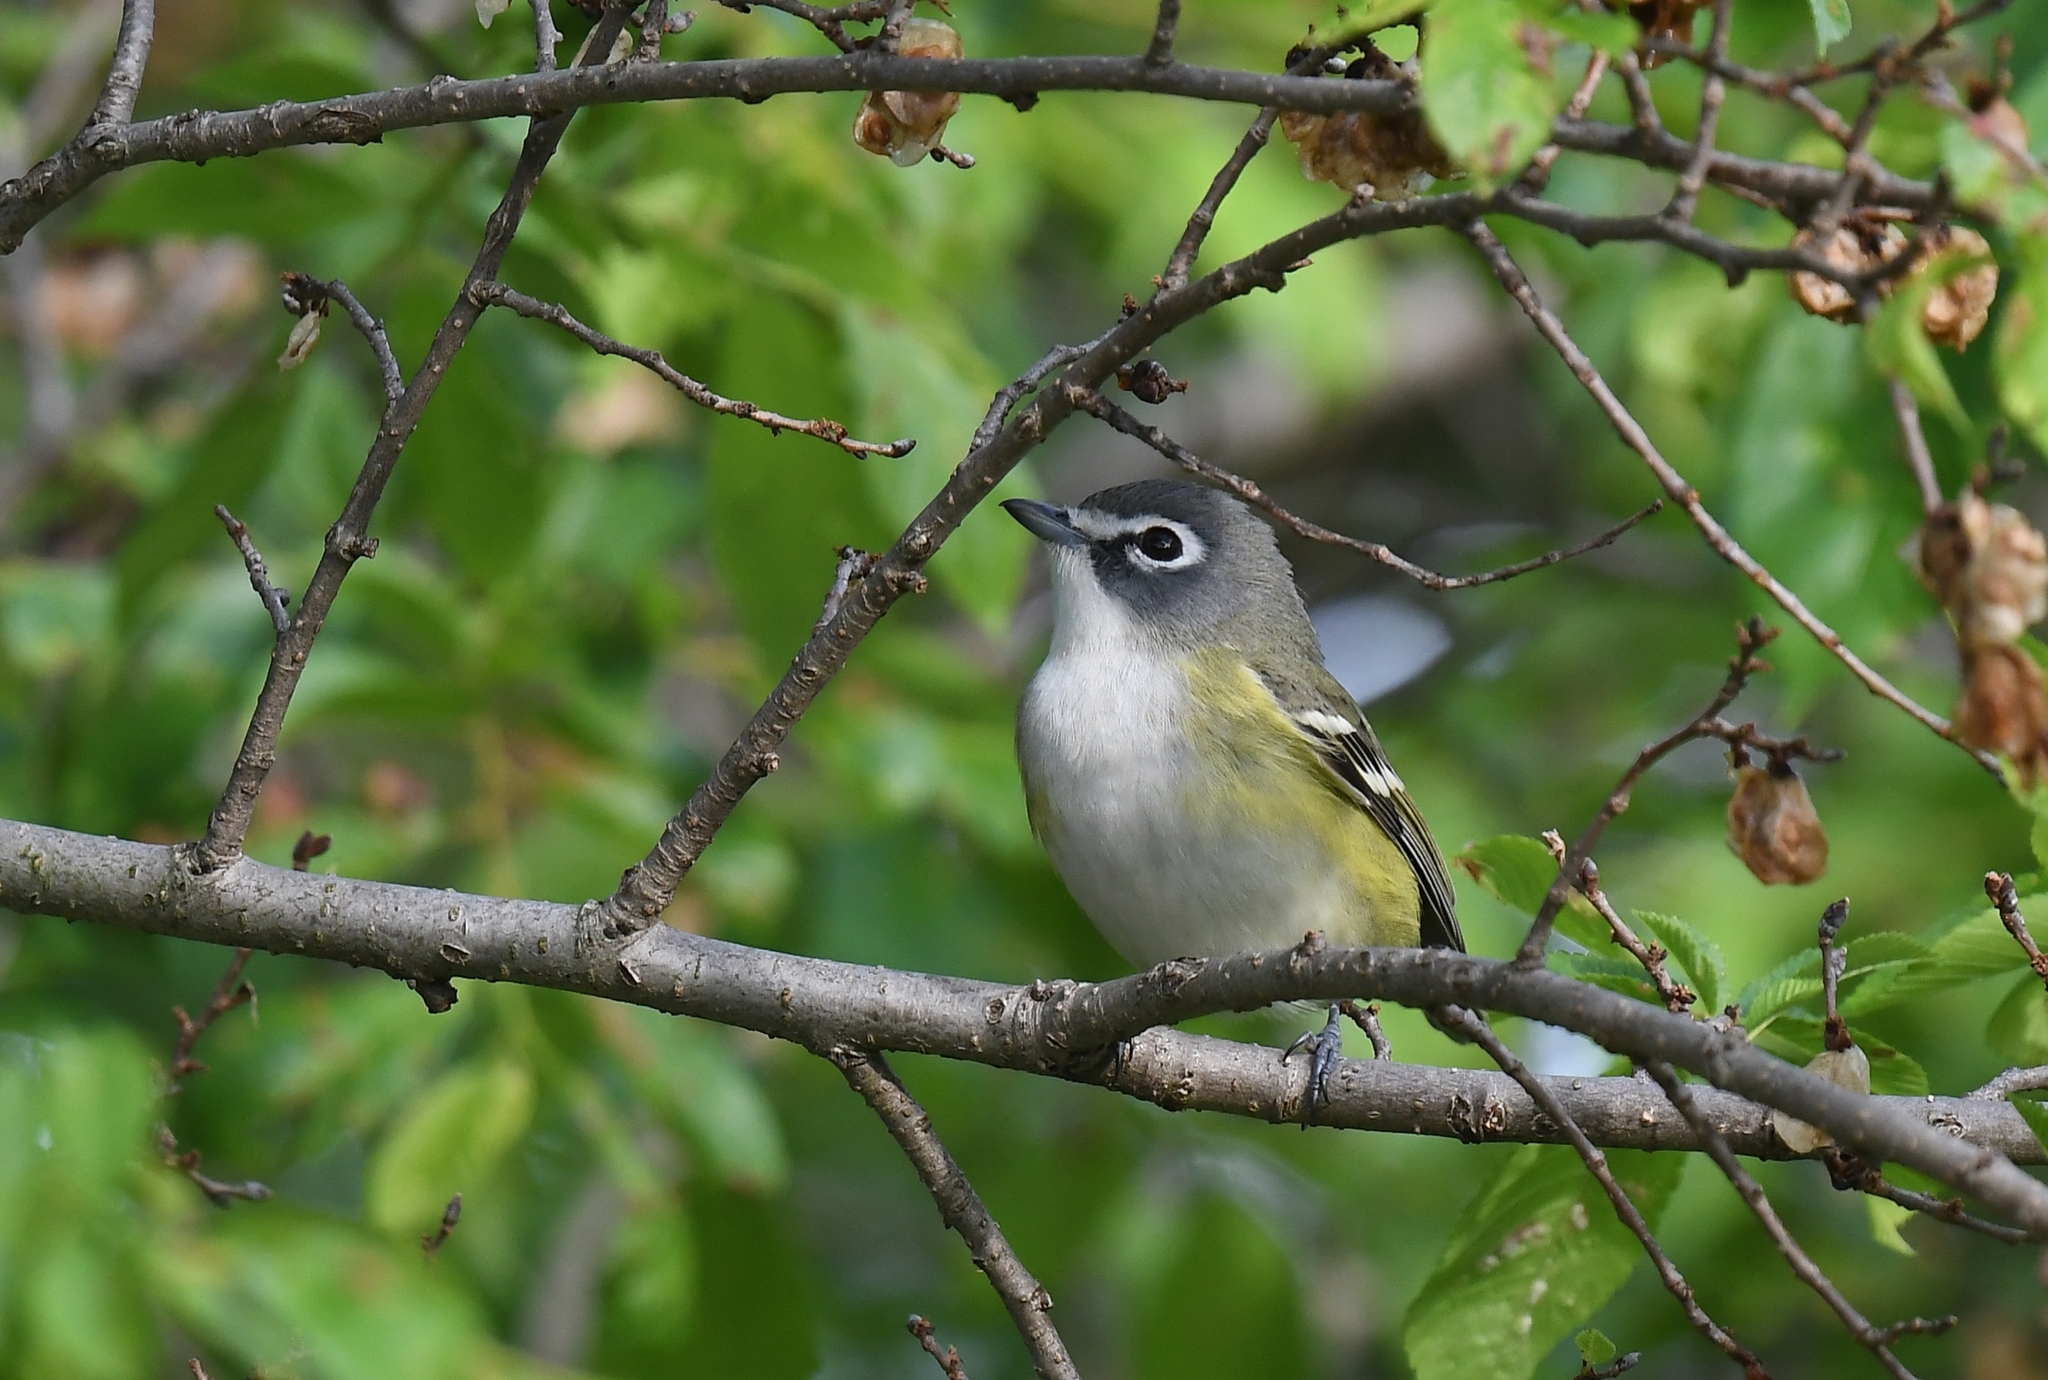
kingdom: Animalia
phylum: Chordata
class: Aves
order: Passeriformes
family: Vireonidae
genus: Vireo
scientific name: Vireo solitarius
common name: Blue-headed vireo
